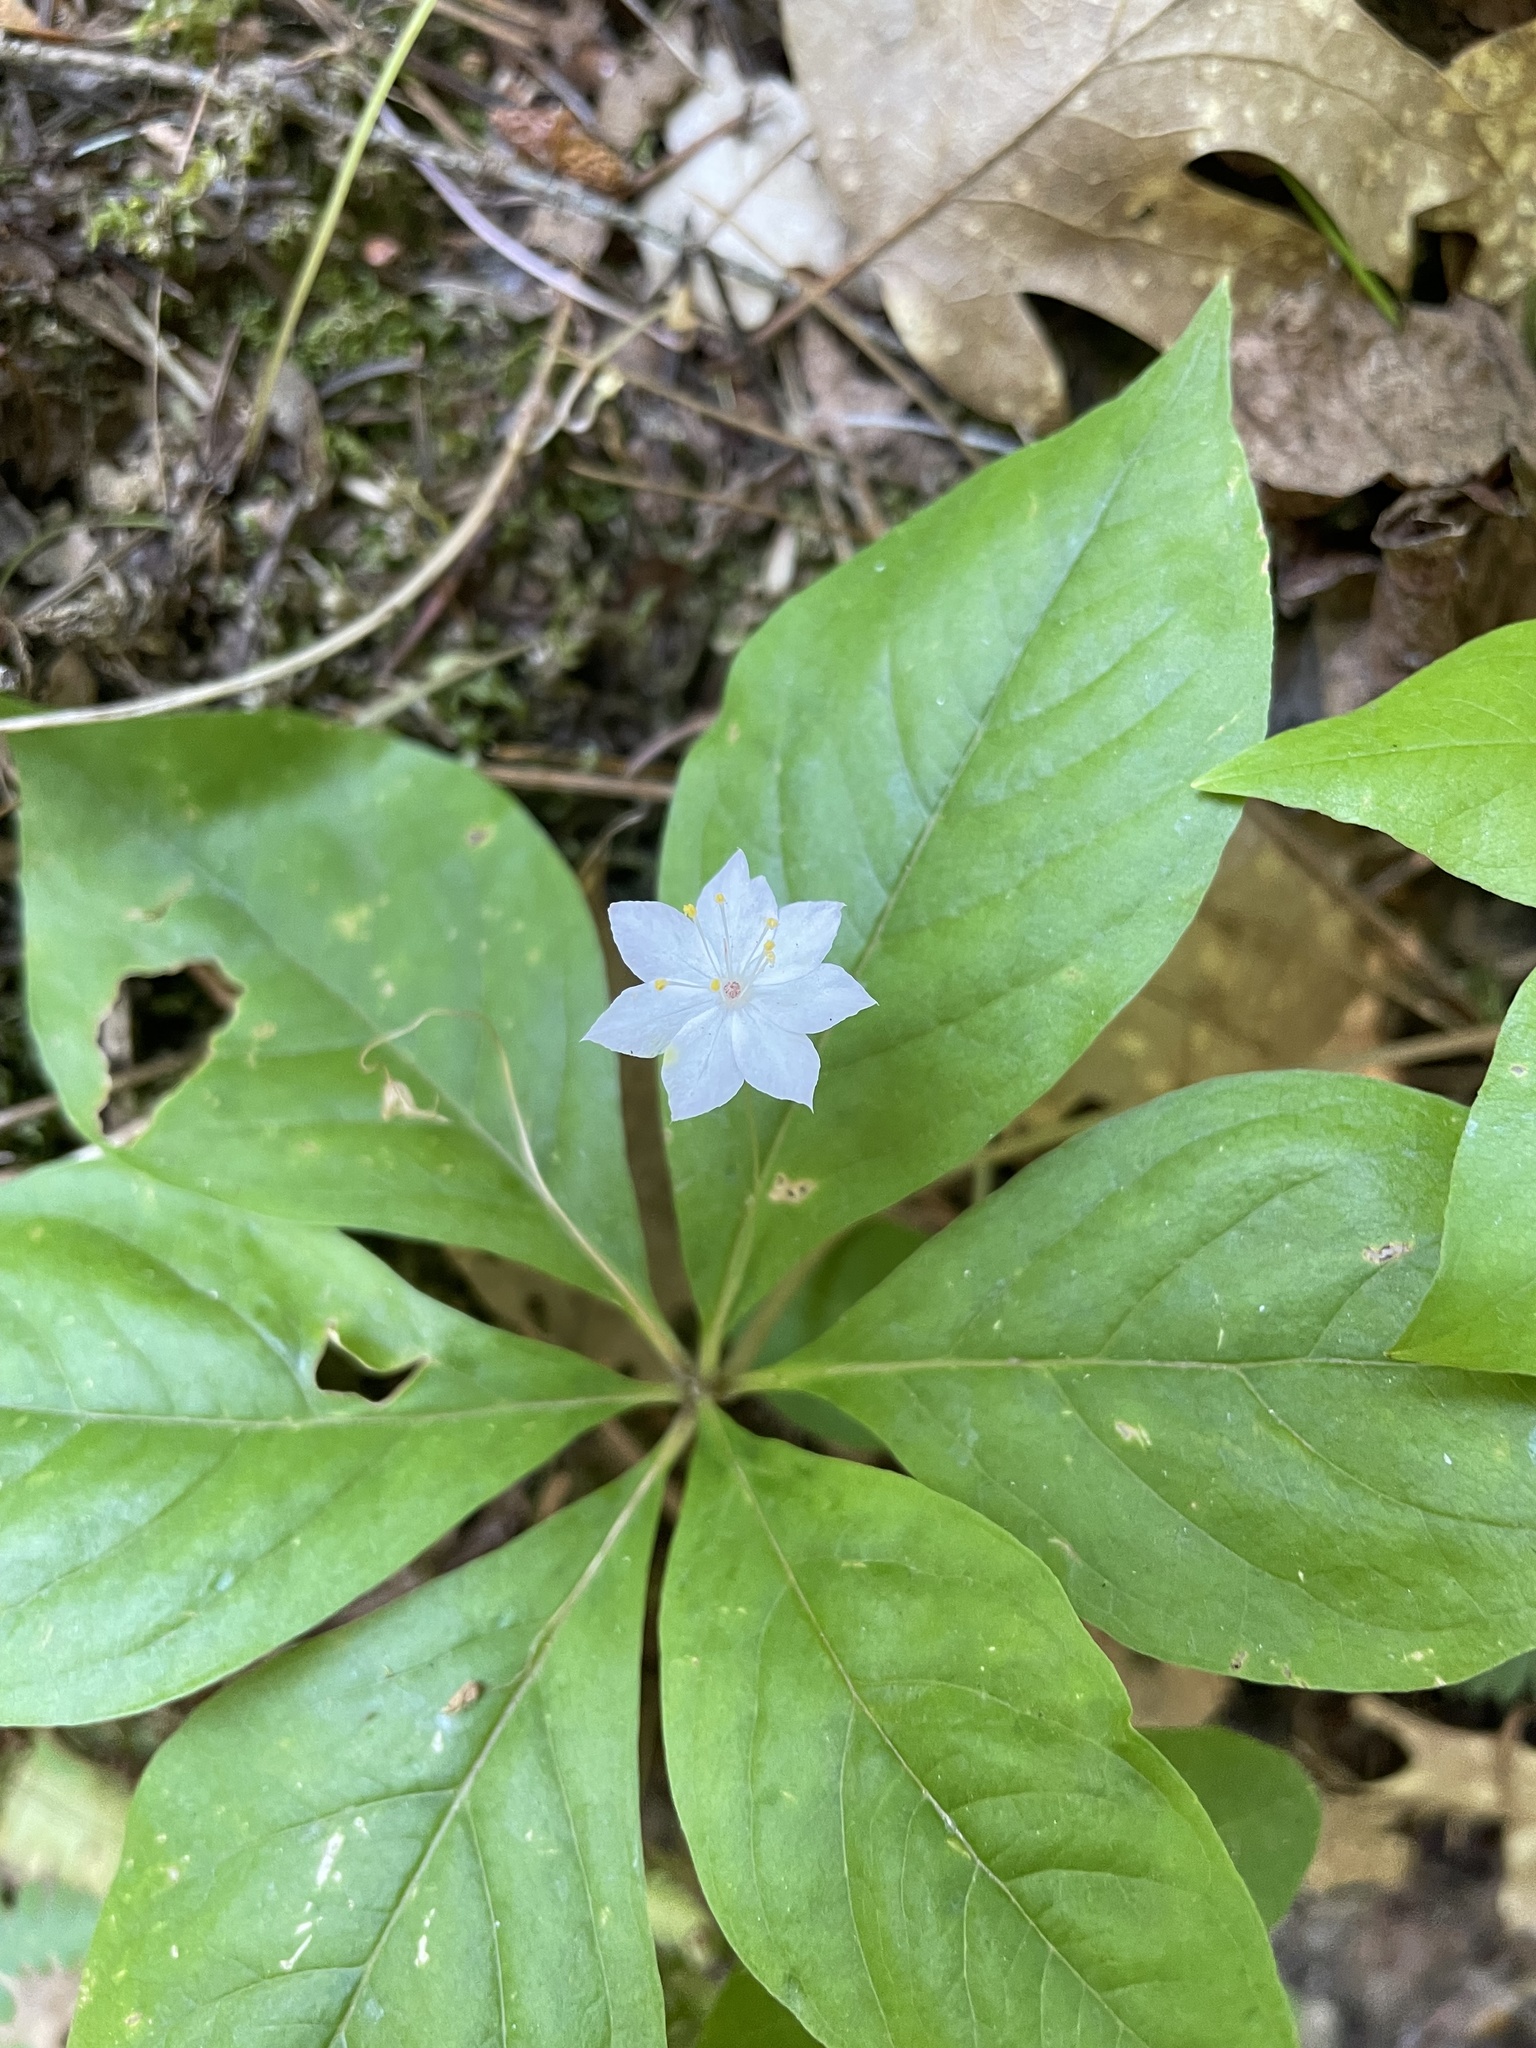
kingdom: Plantae
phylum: Tracheophyta
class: Magnoliopsida
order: Ericales
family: Primulaceae
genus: Lysimachia
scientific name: Lysimachia latifolia
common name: Pacific starflower
